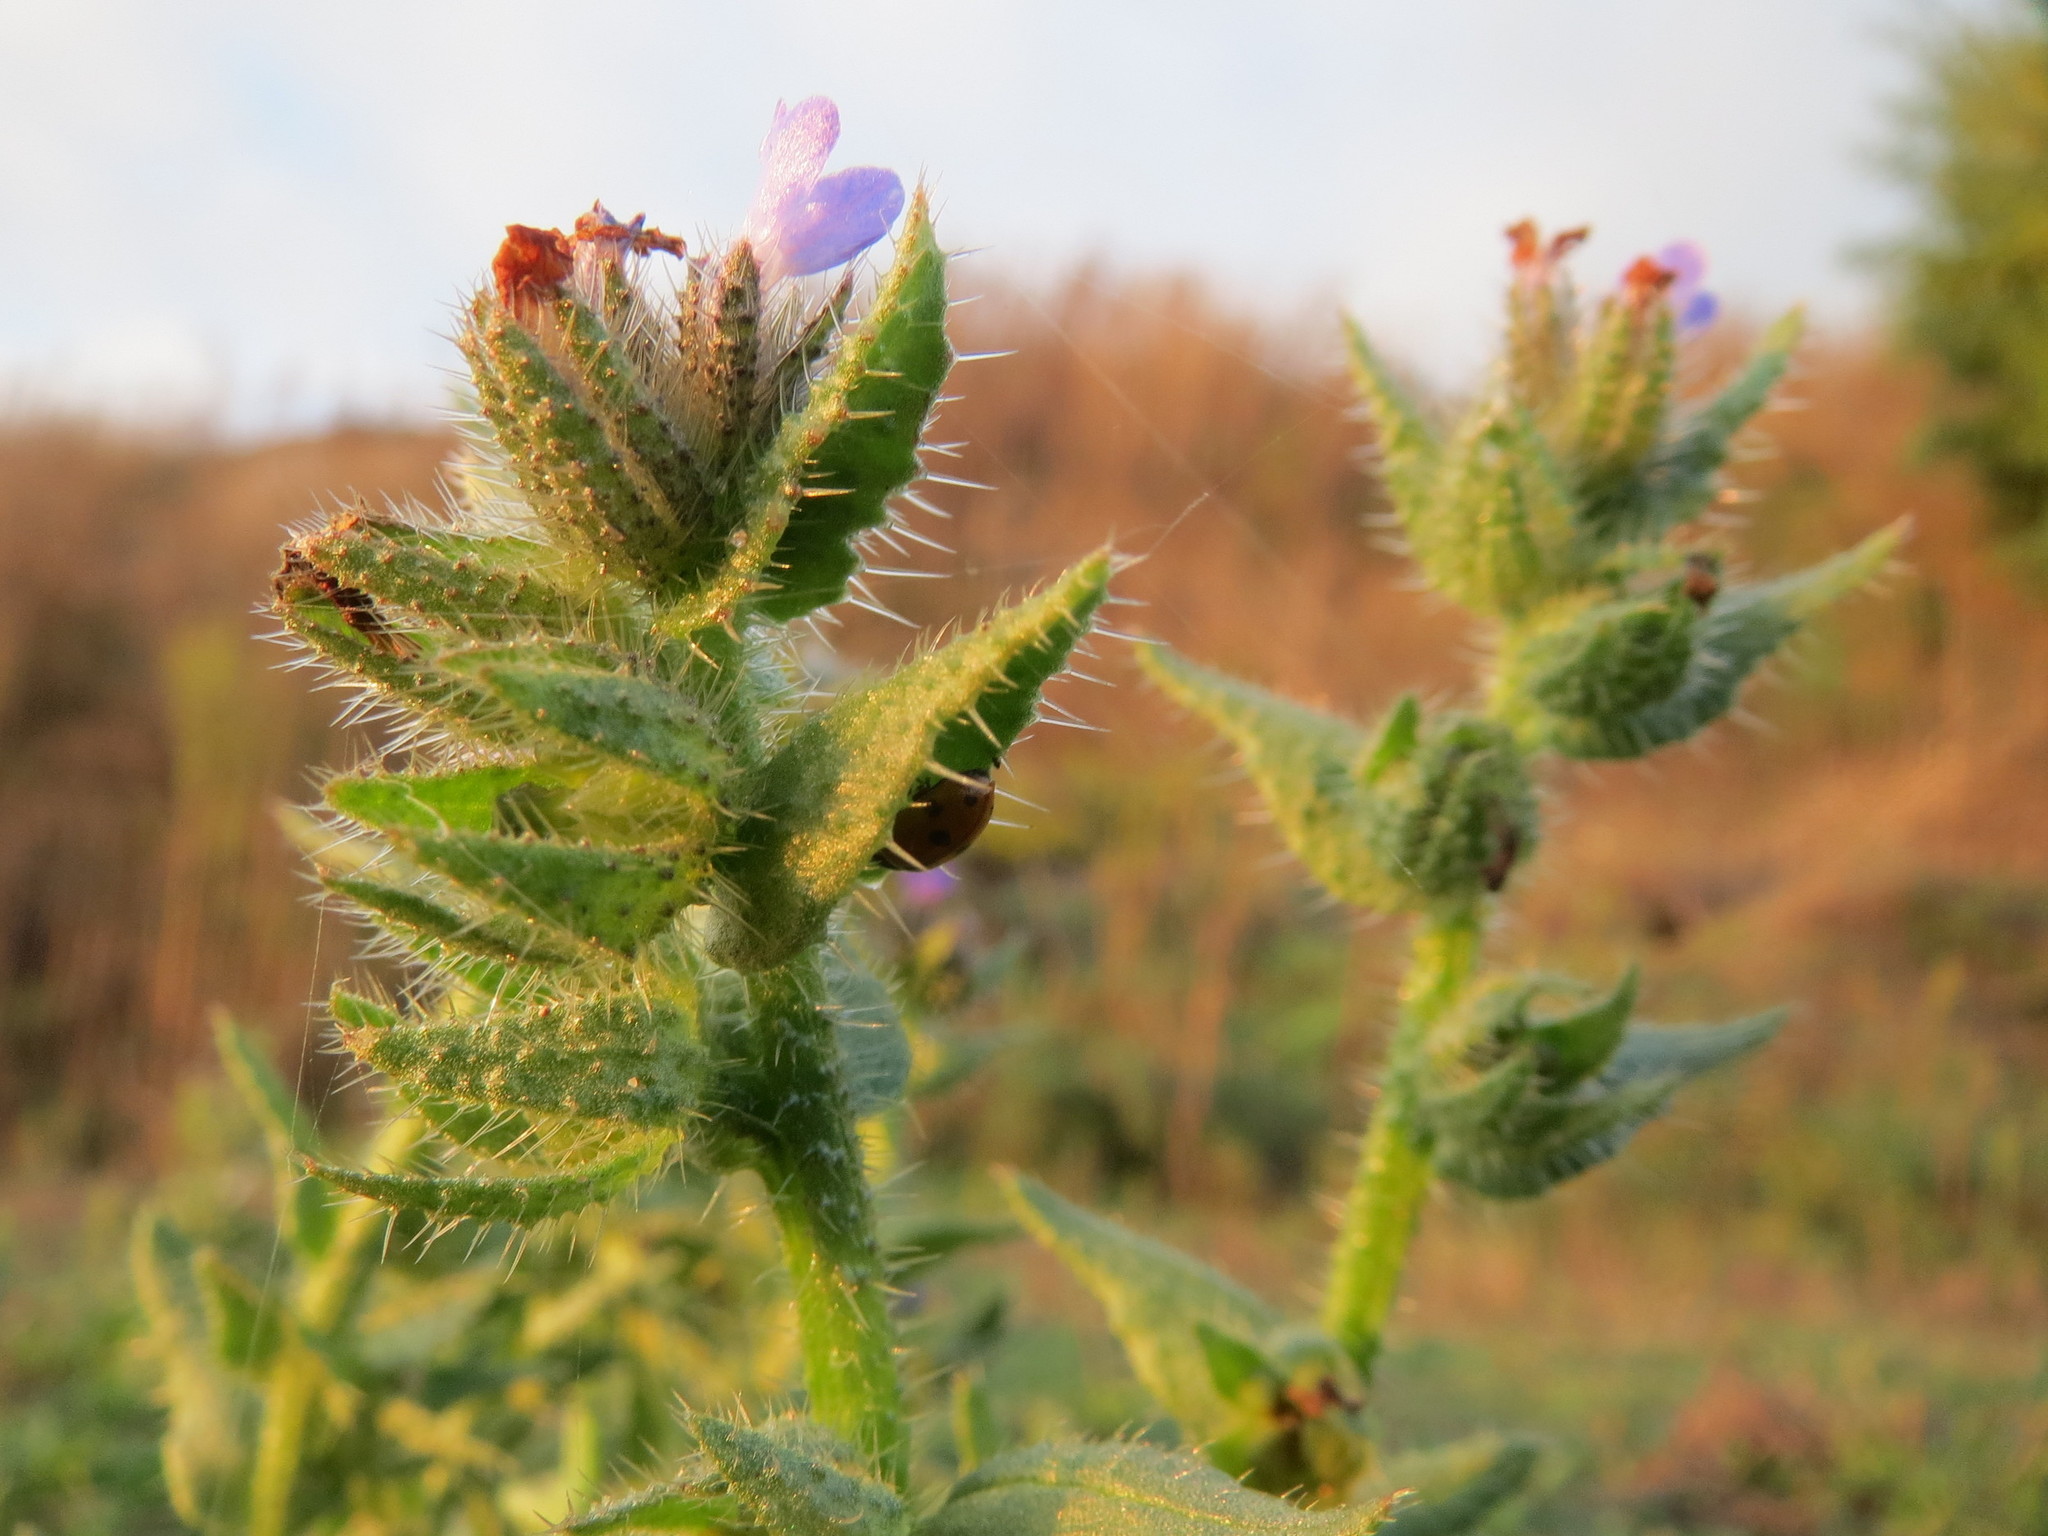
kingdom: Plantae
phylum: Tracheophyta
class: Magnoliopsida
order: Boraginales
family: Boraginaceae
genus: Lycopsis
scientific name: Lycopsis arvensis
